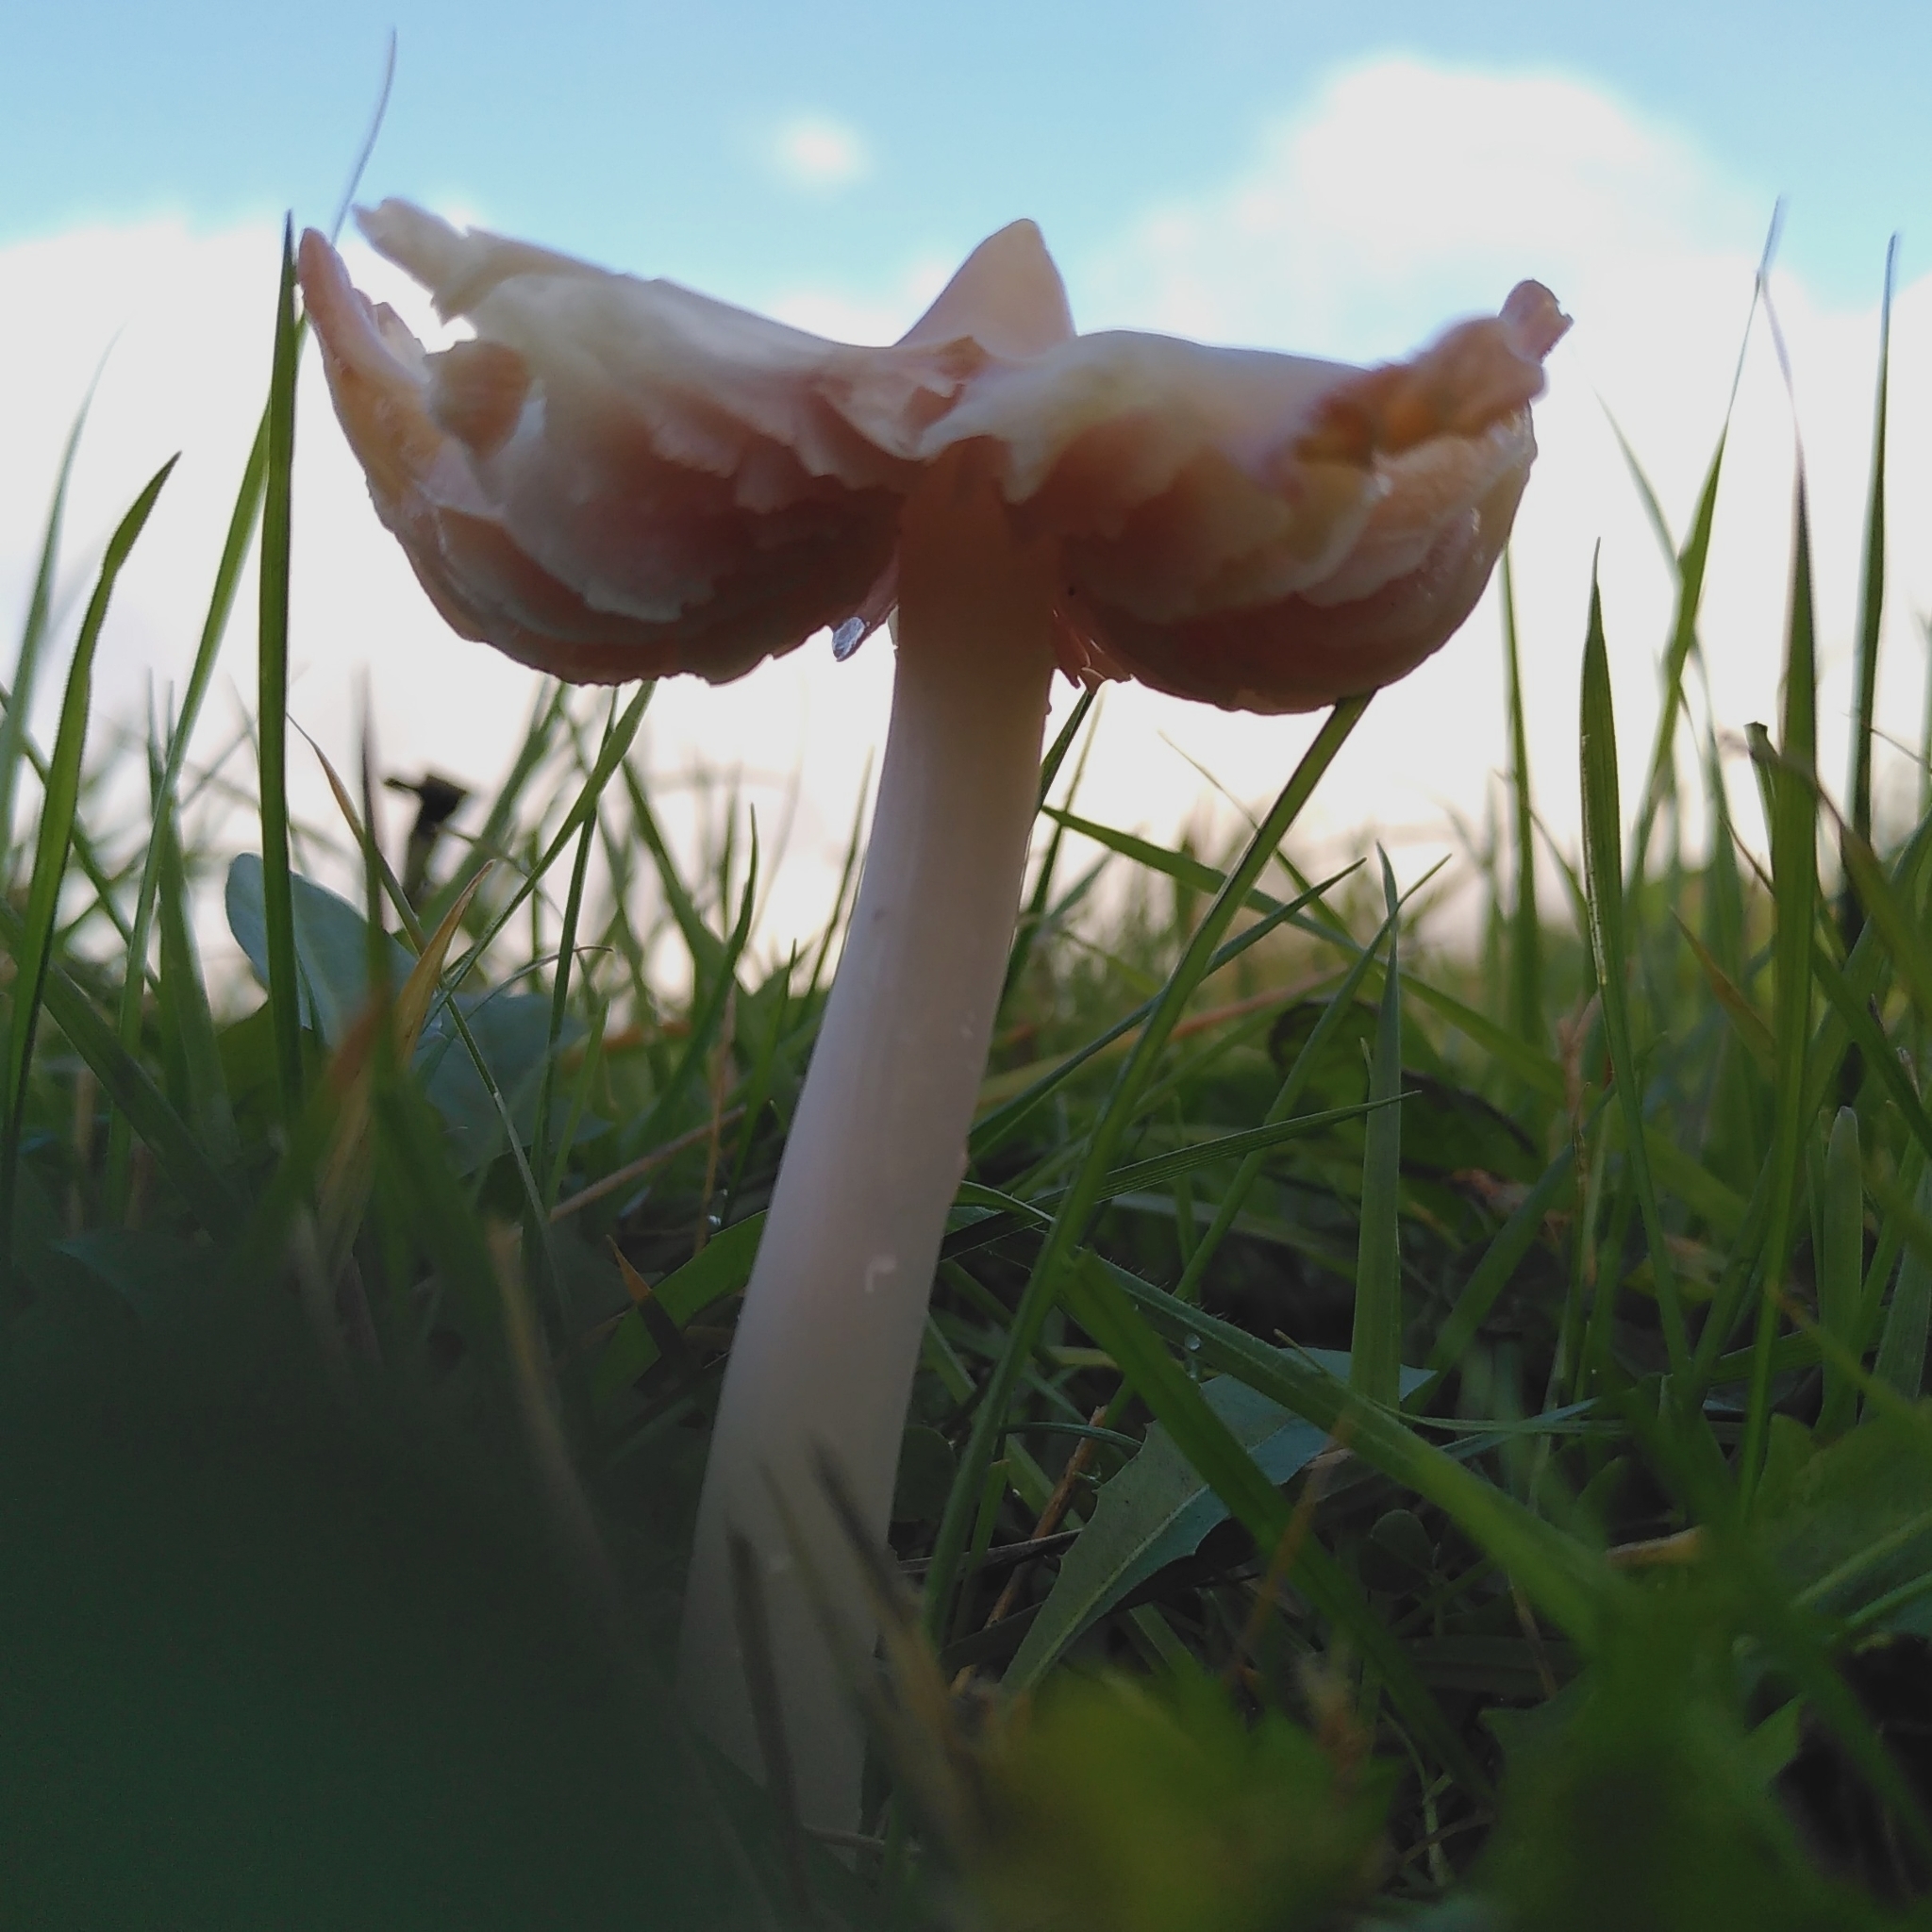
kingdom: Fungi
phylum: Basidiomycota
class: Agaricomycetes
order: Agaricales
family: Hygrophoraceae
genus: Porpolomopsis
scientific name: Porpolomopsis calyptriformis
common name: Pink waxcap
